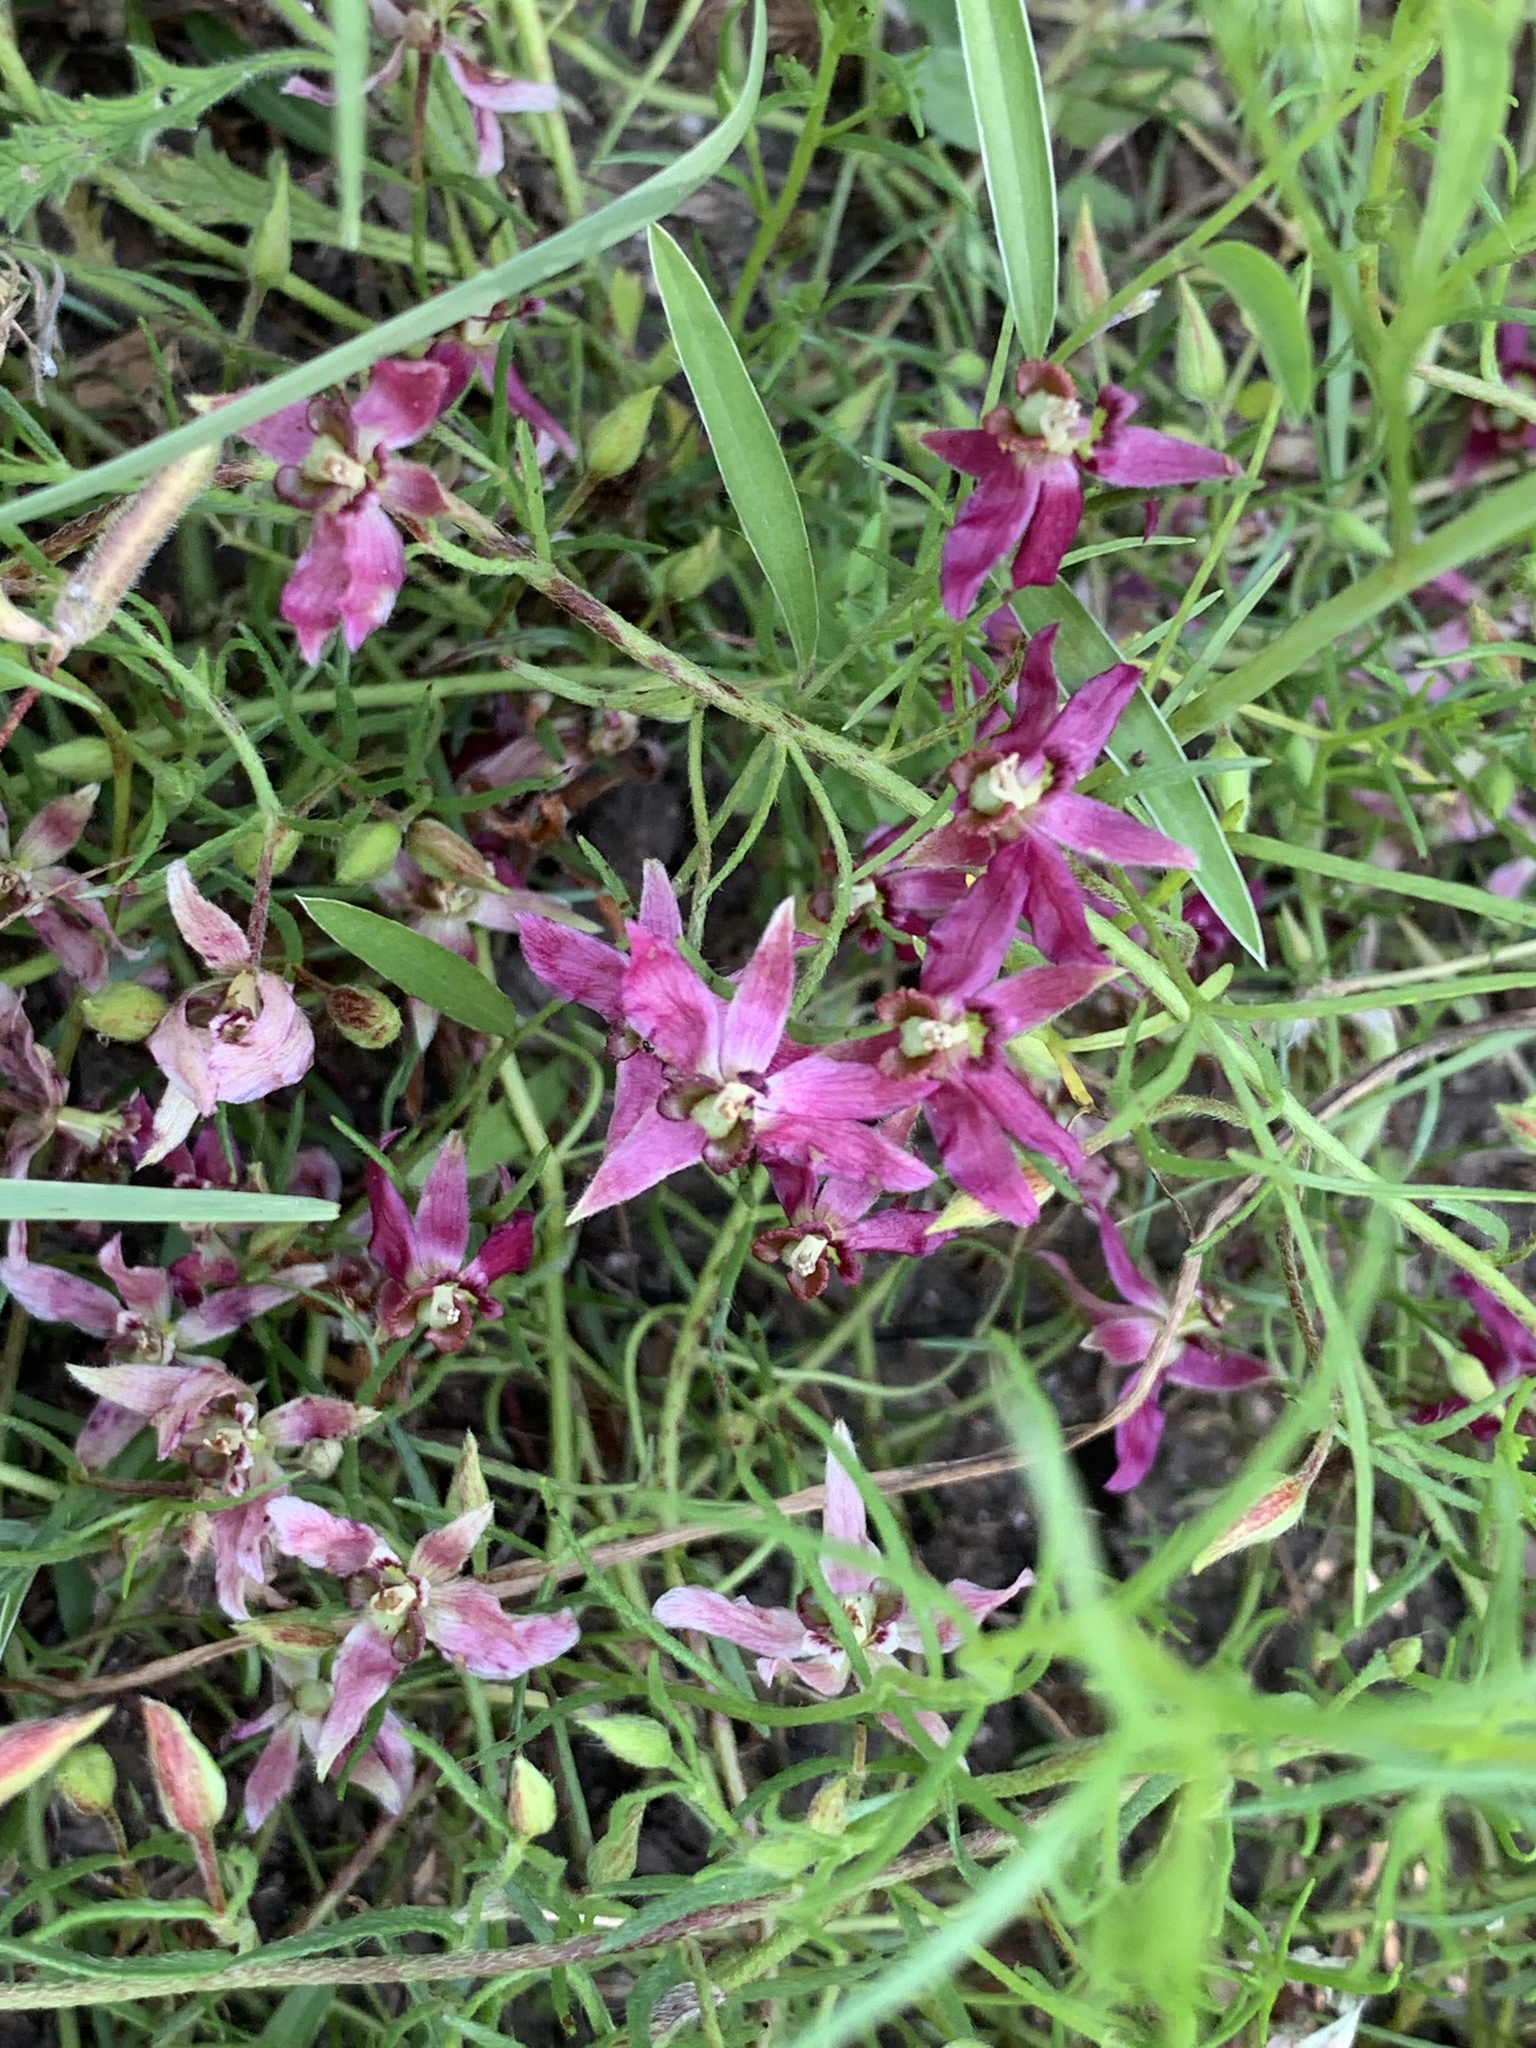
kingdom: Plantae
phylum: Tracheophyta
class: Magnoliopsida
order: Zygophyllales
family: Krameriaceae
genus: Krameria
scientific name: Krameria lanceolata
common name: Ratany
